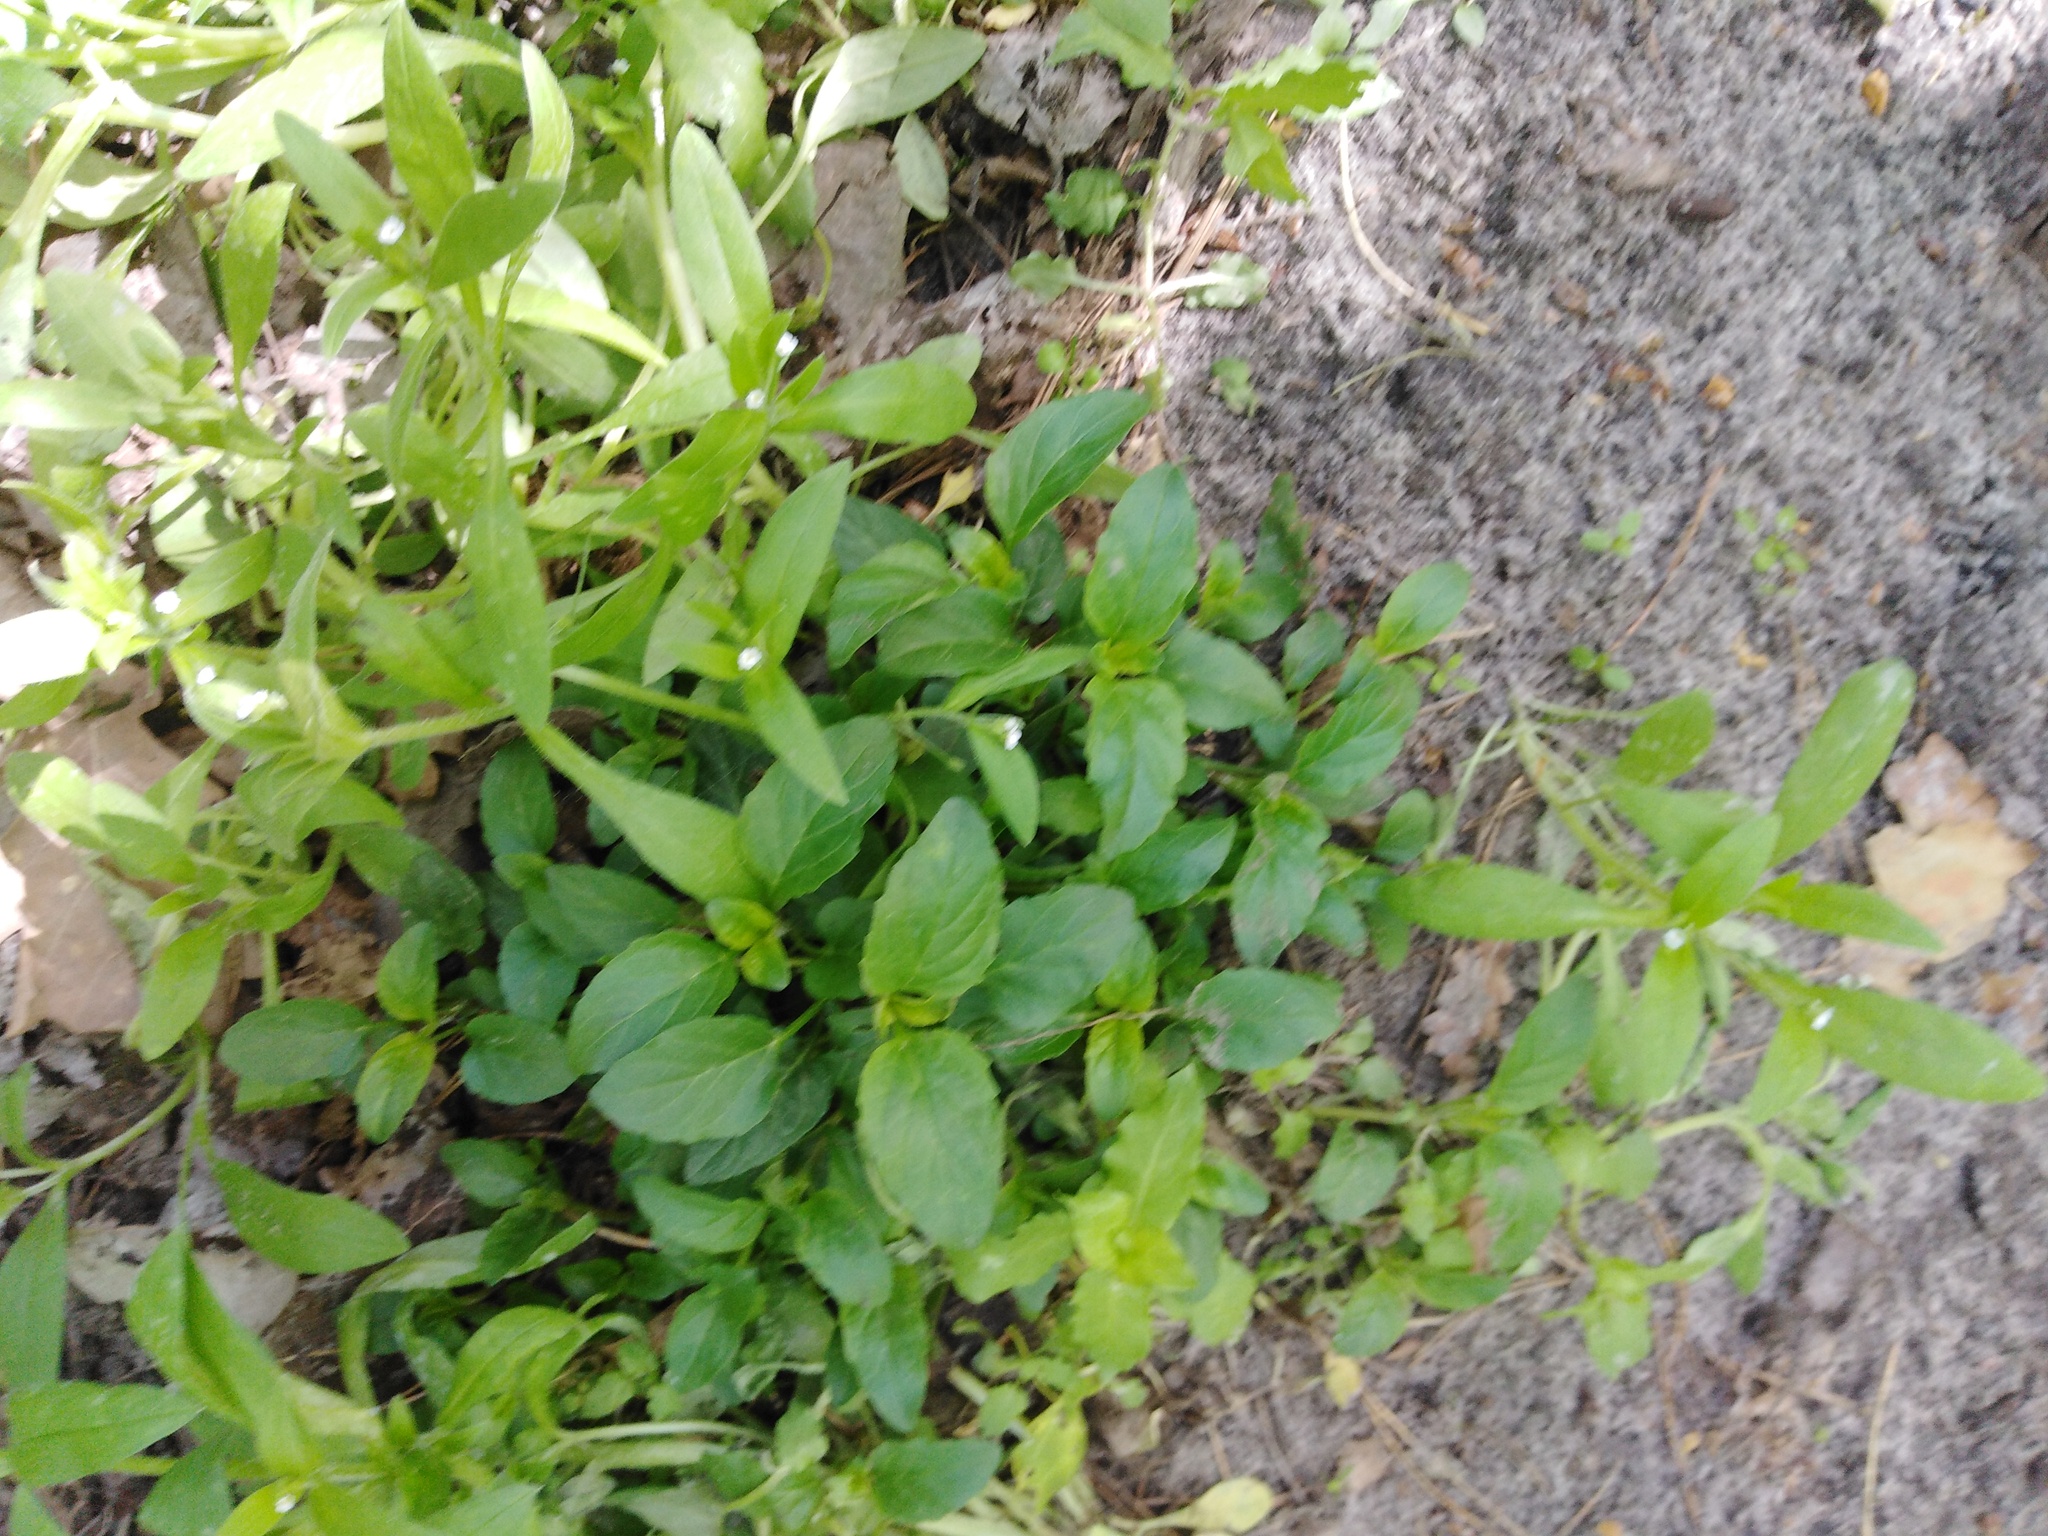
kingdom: Plantae
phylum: Tracheophyta
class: Magnoliopsida
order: Boraginales
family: Boraginaceae
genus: Myosotis
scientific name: Myosotis sparsiflora
